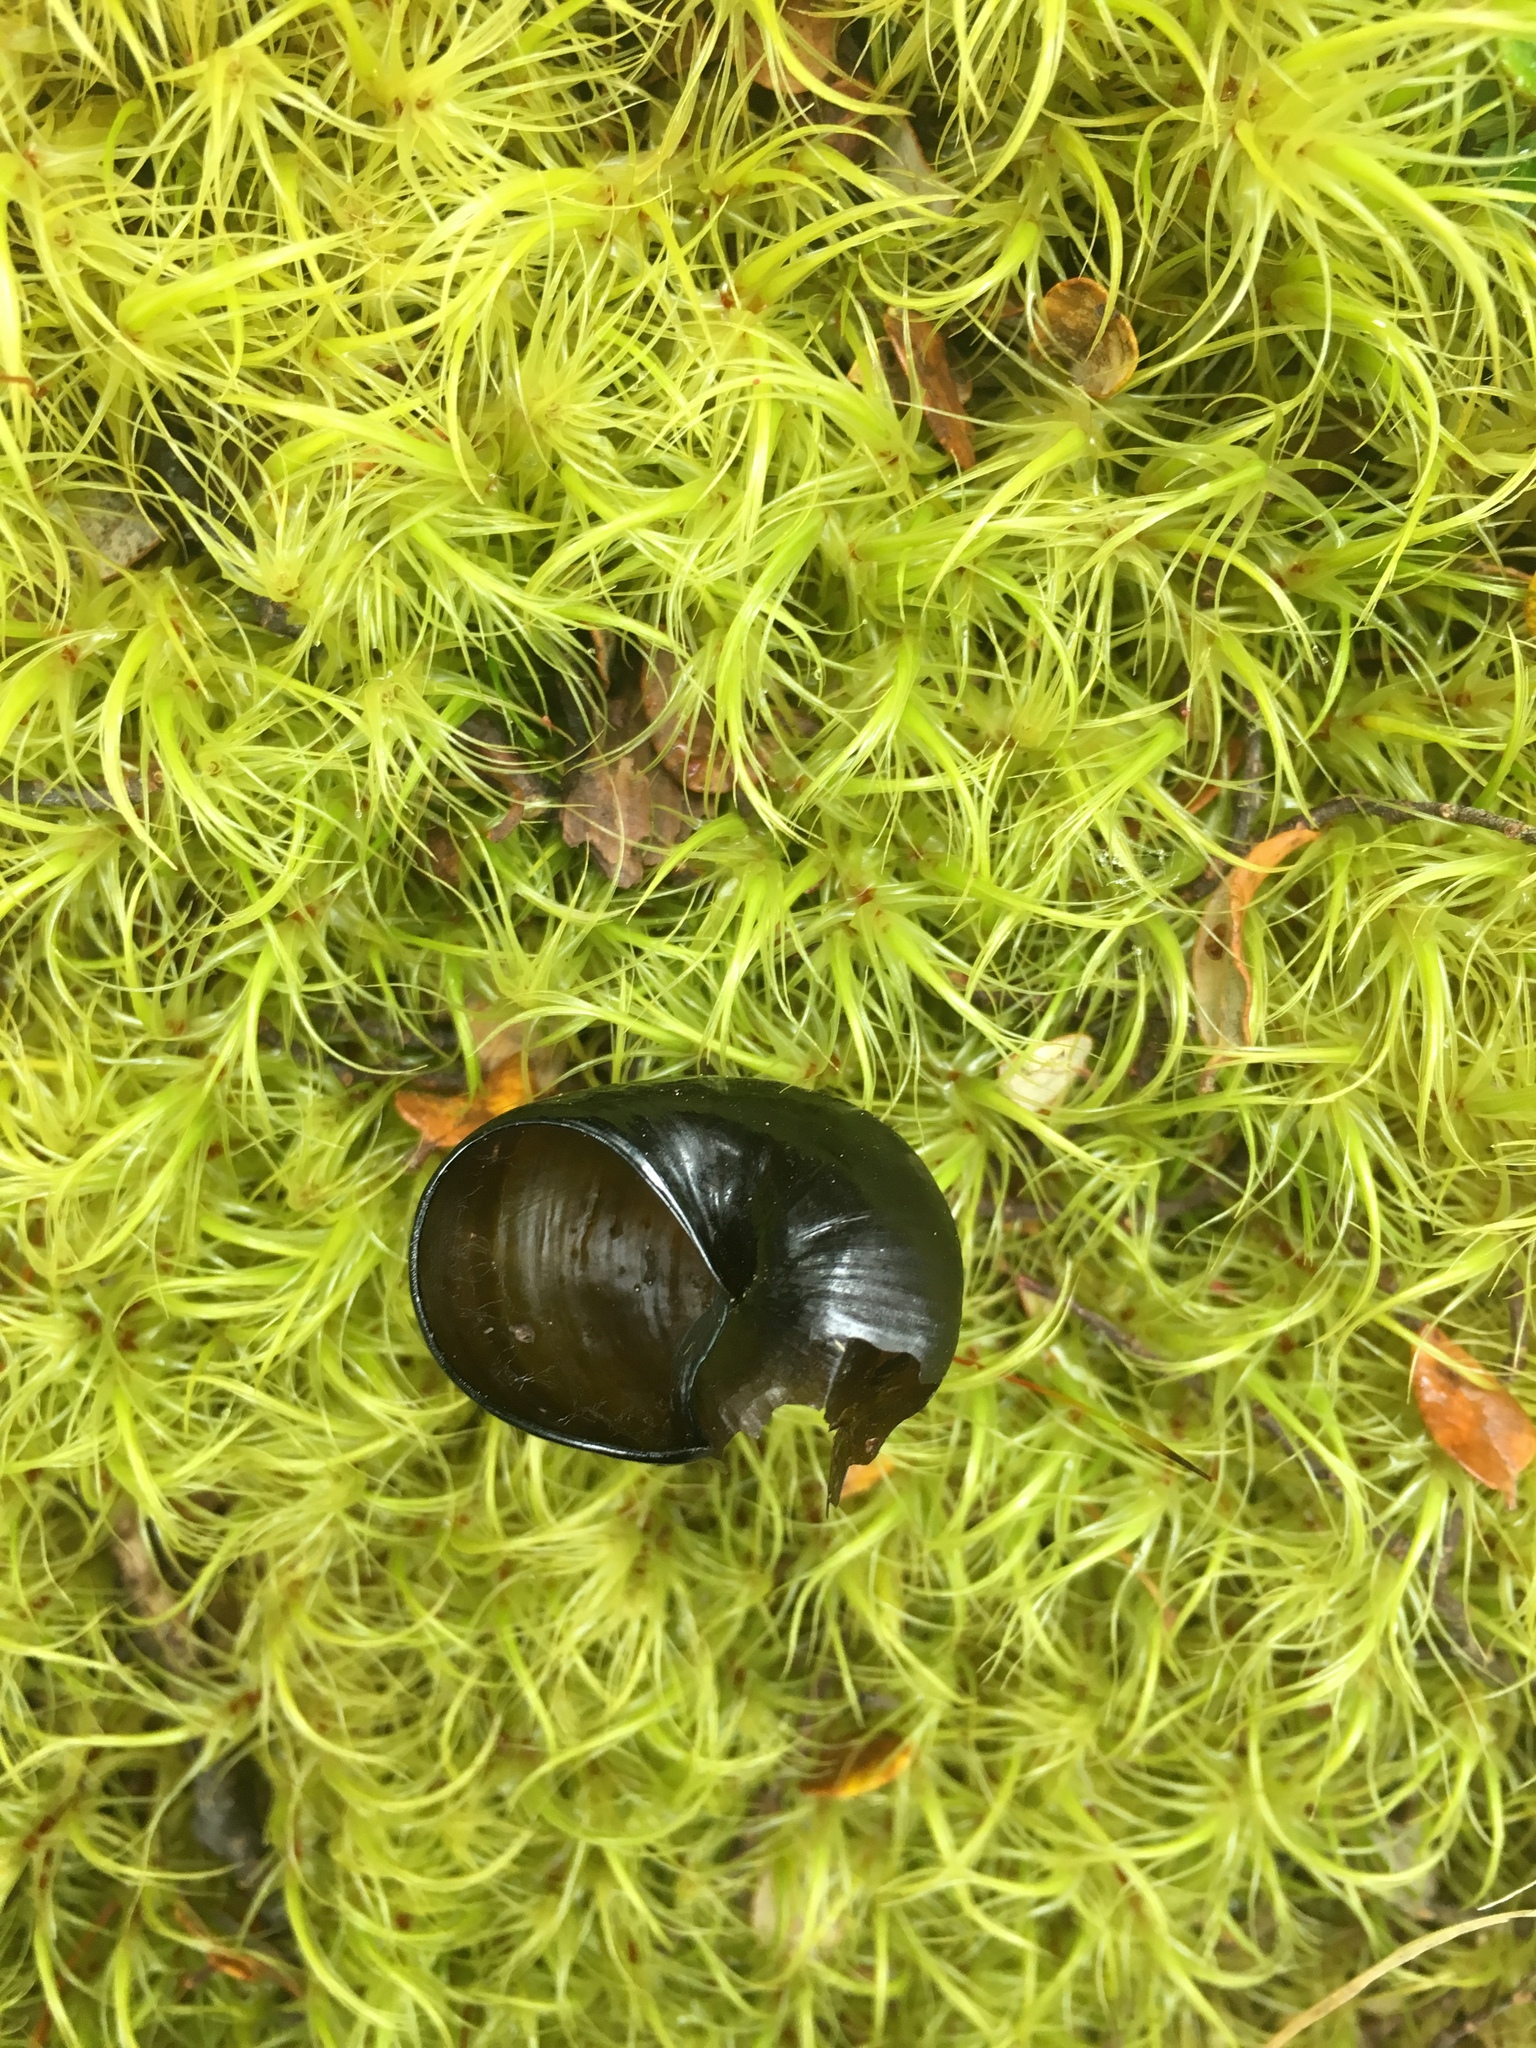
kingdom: Animalia
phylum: Mollusca
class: Gastropoda
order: Stylommatophora
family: Rhytididae
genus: Wainuia
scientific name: Wainuia urnula
